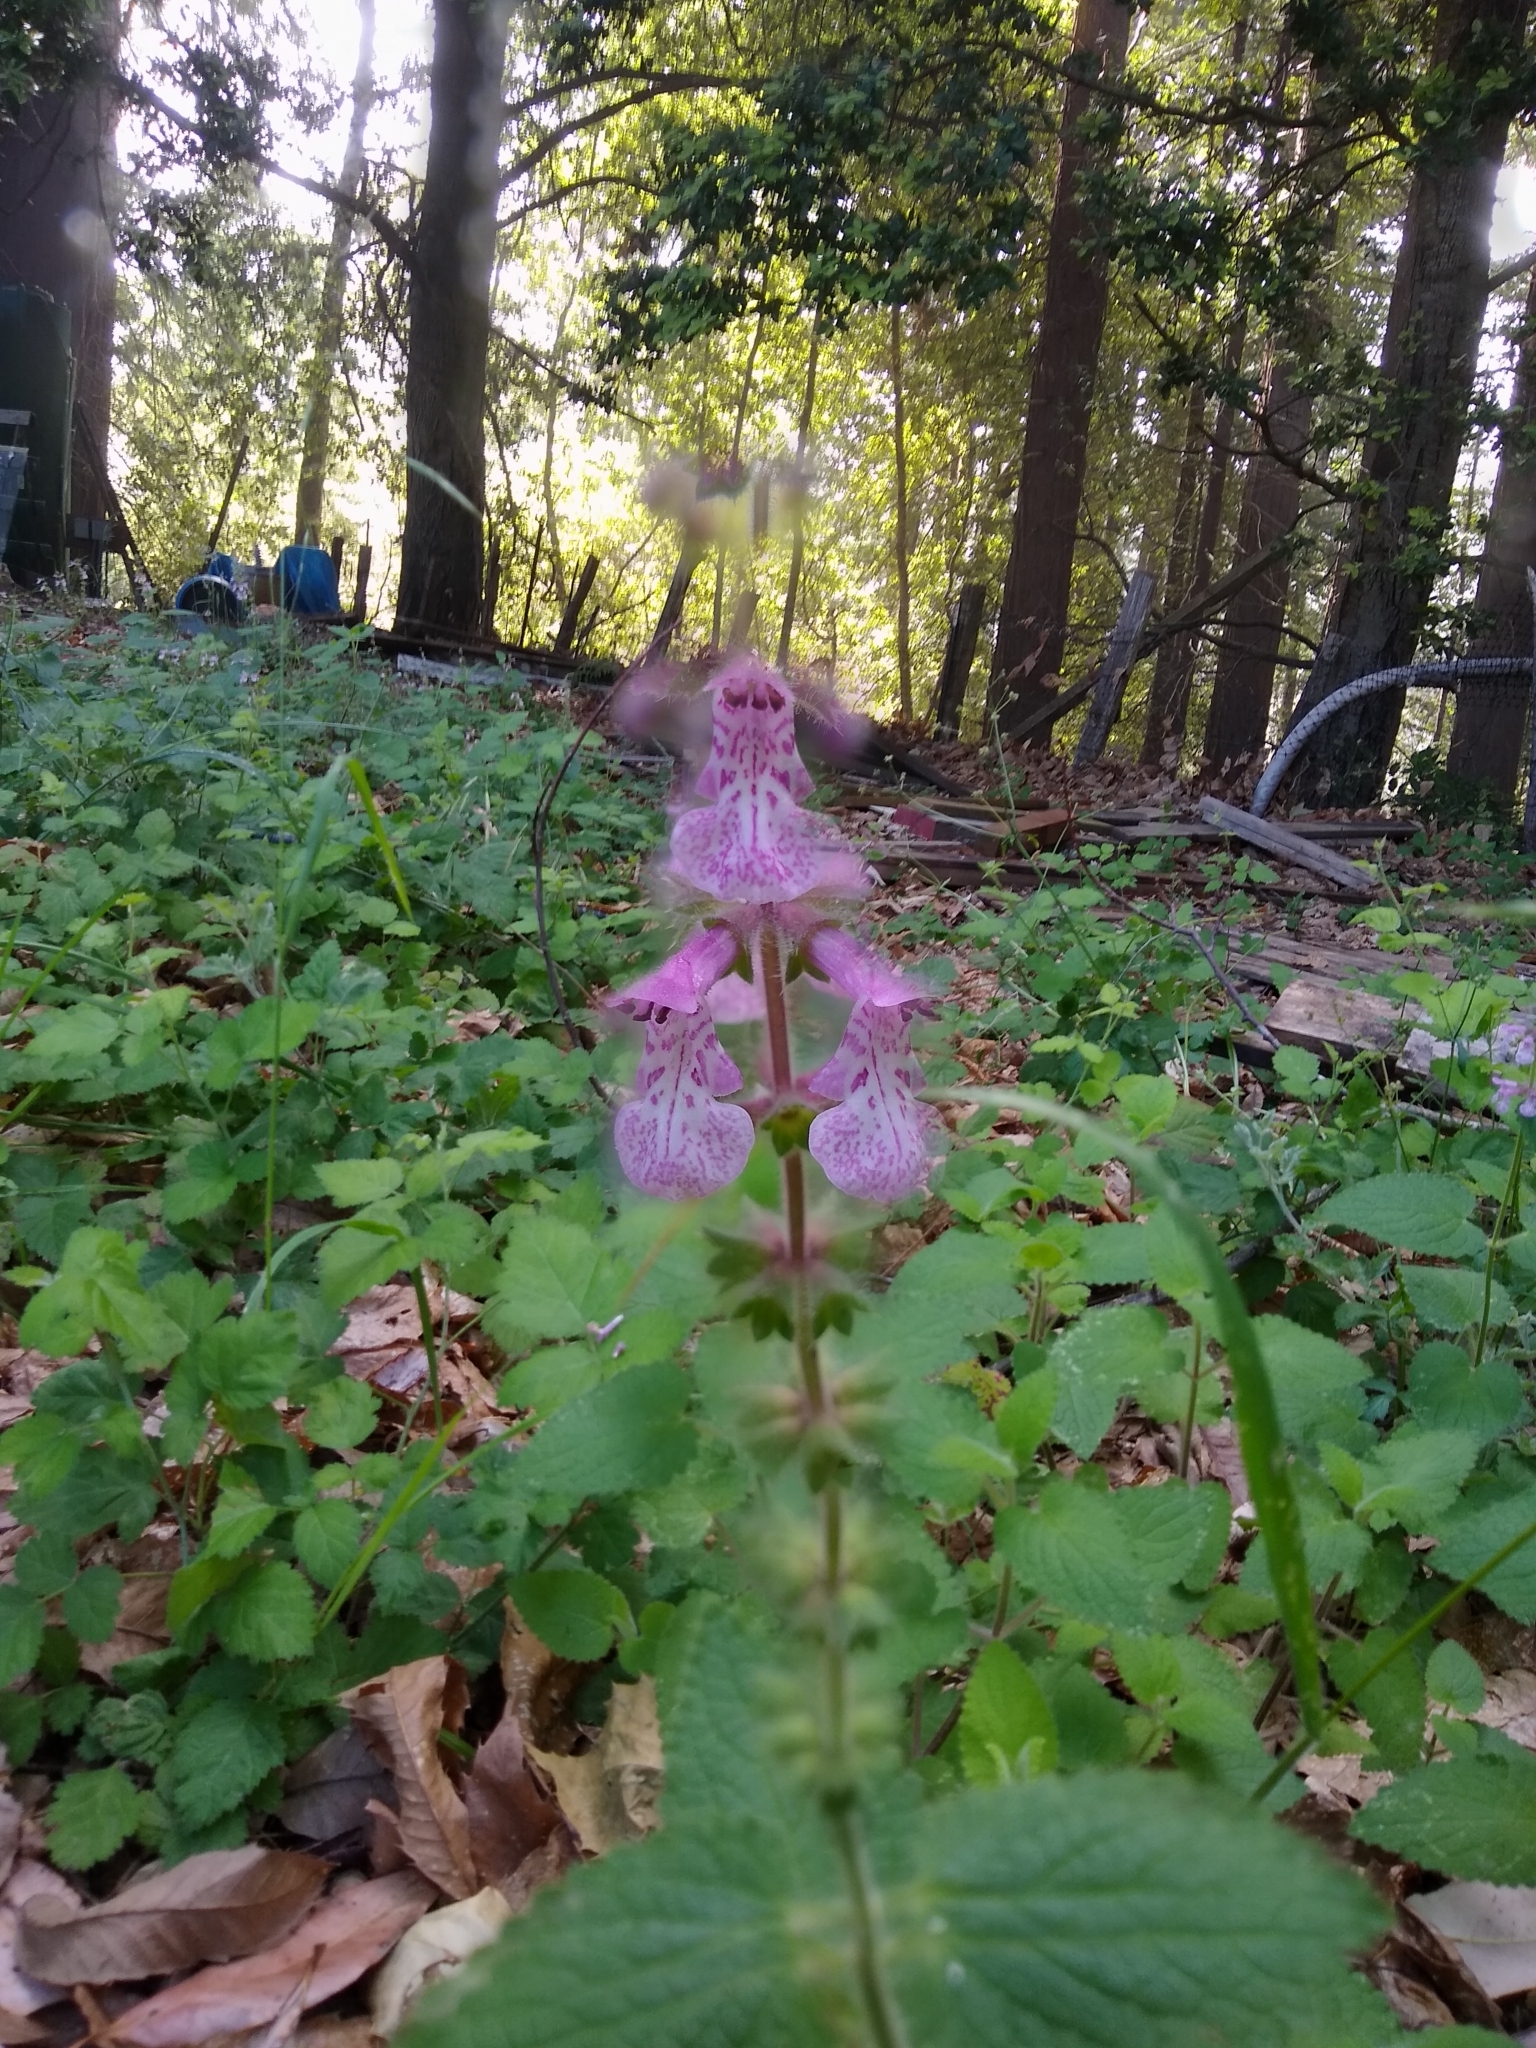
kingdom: Plantae
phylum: Tracheophyta
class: Magnoliopsida
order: Lamiales
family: Lamiaceae
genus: Stachys
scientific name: Stachys bullata
